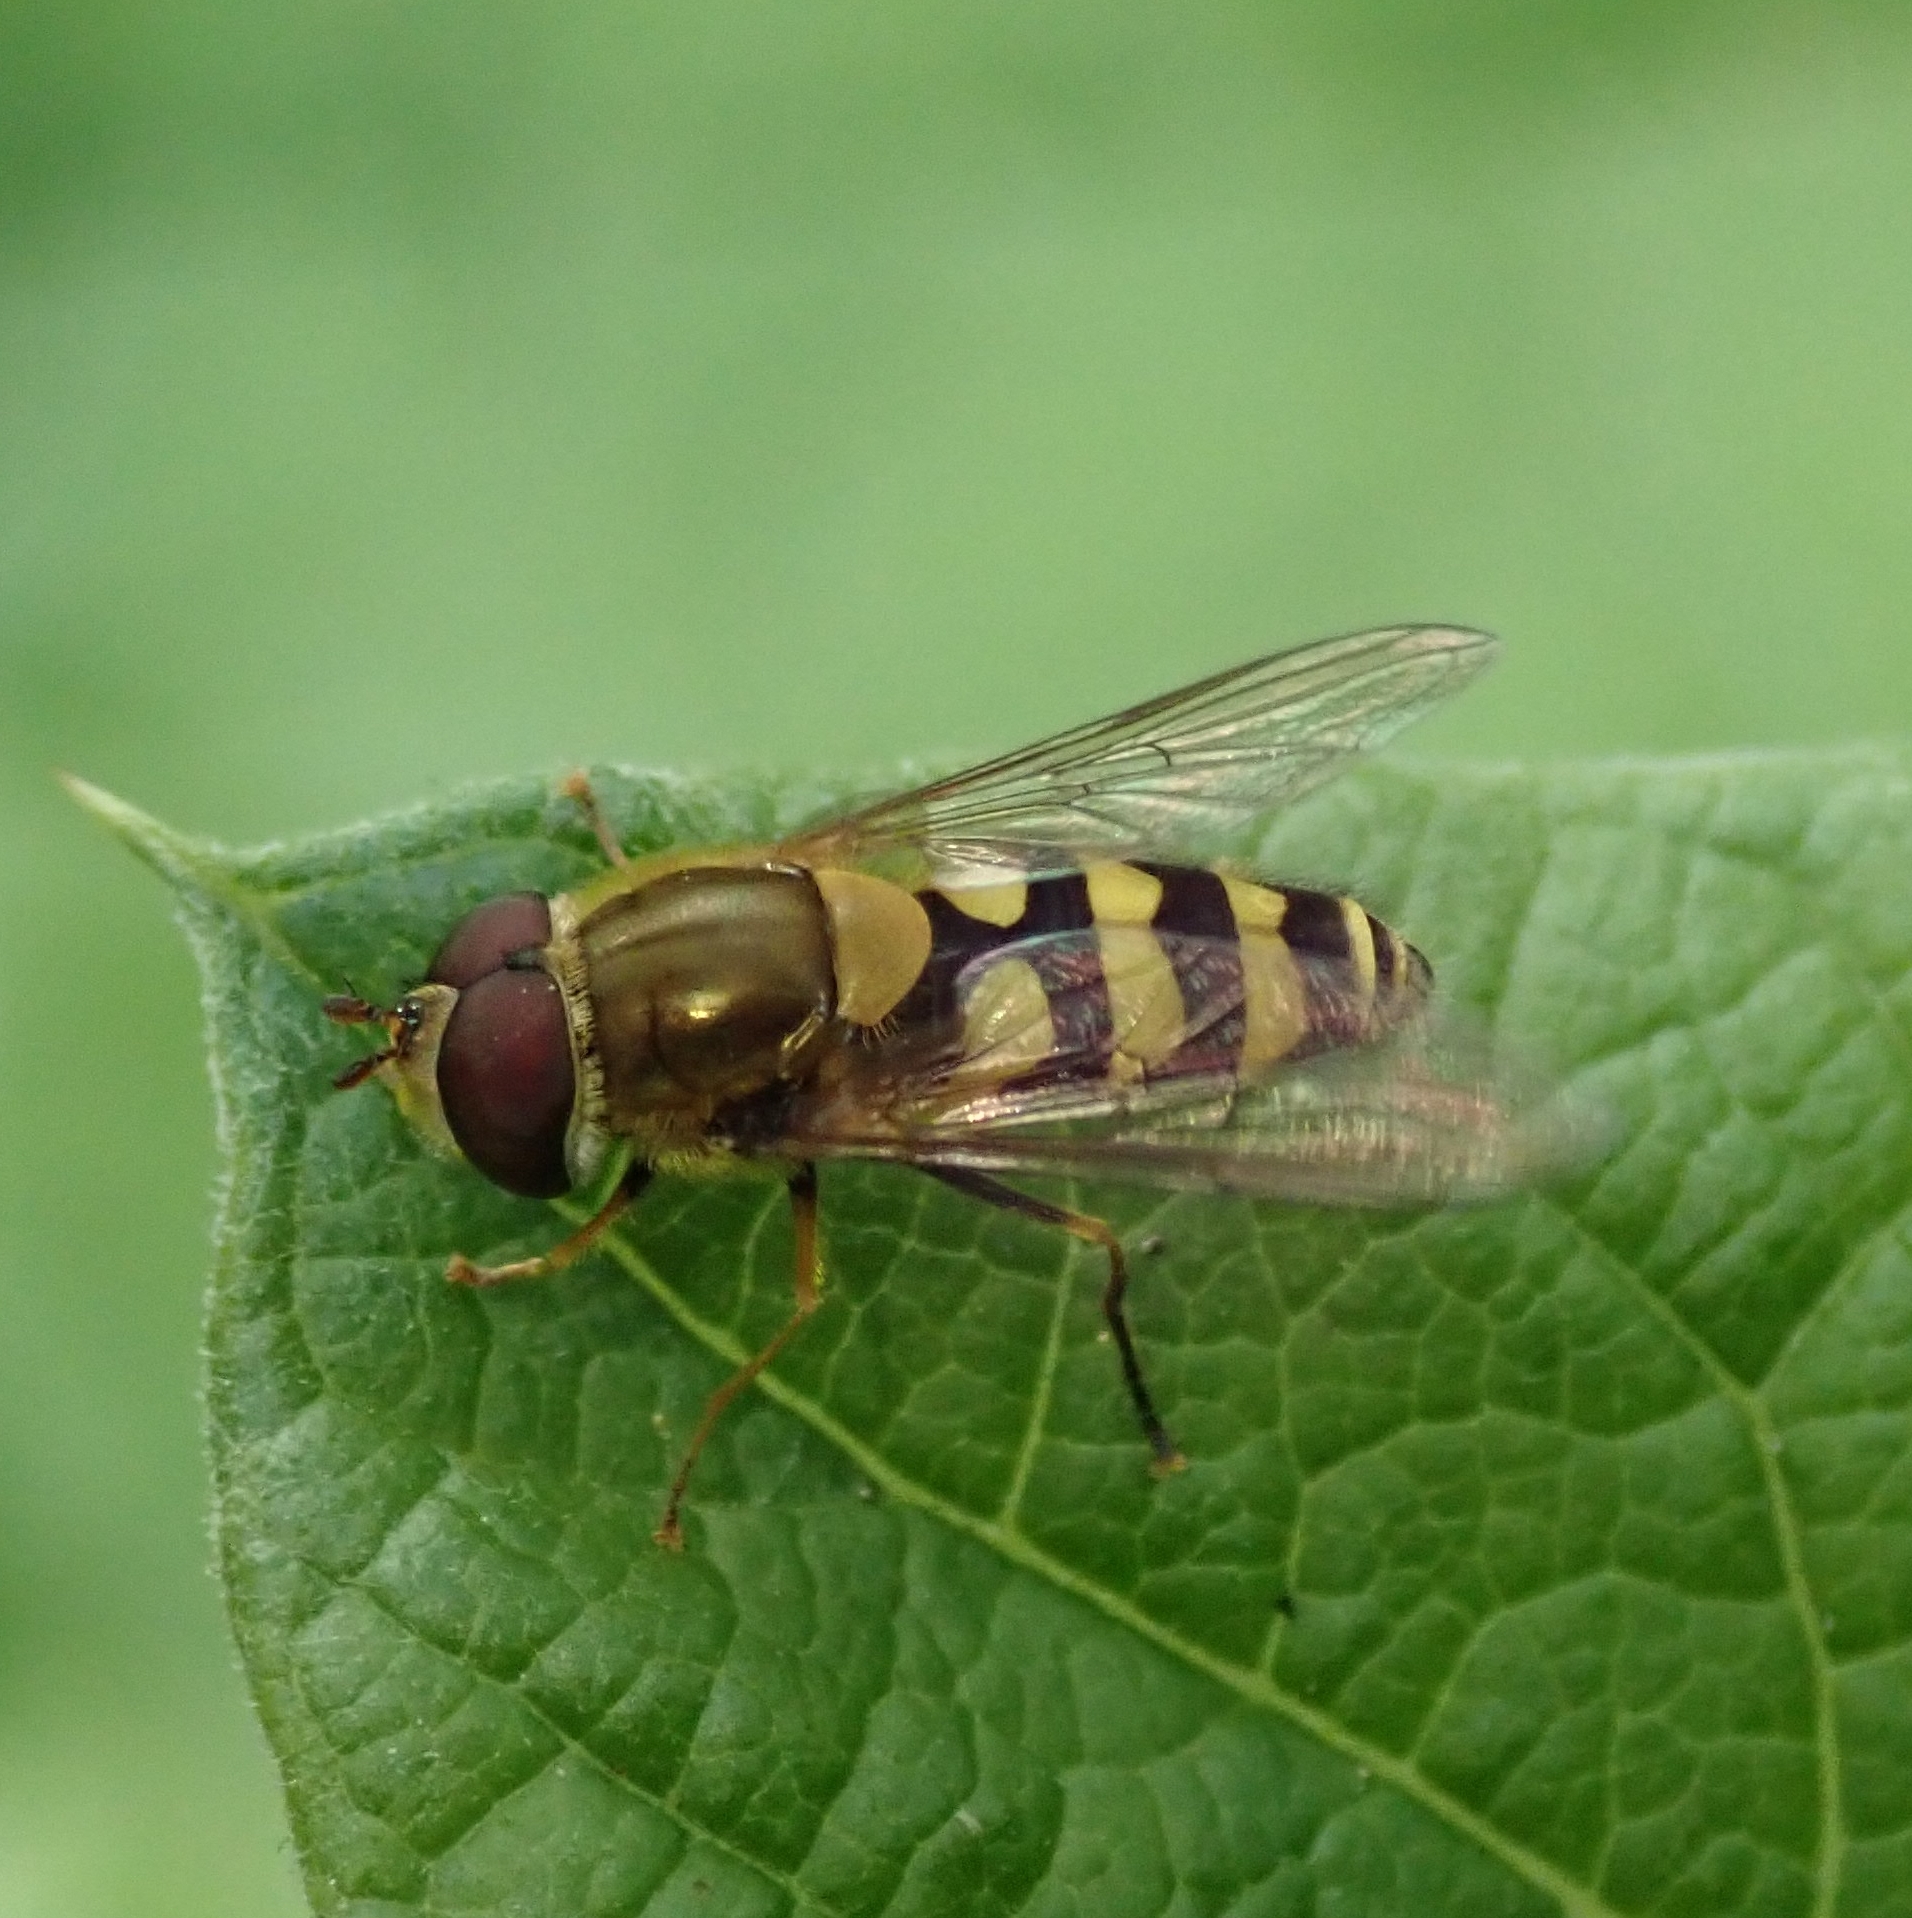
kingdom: Animalia
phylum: Arthropoda
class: Insecta
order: Diptera
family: Syrphidae
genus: Syrphus
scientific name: Syrphus
